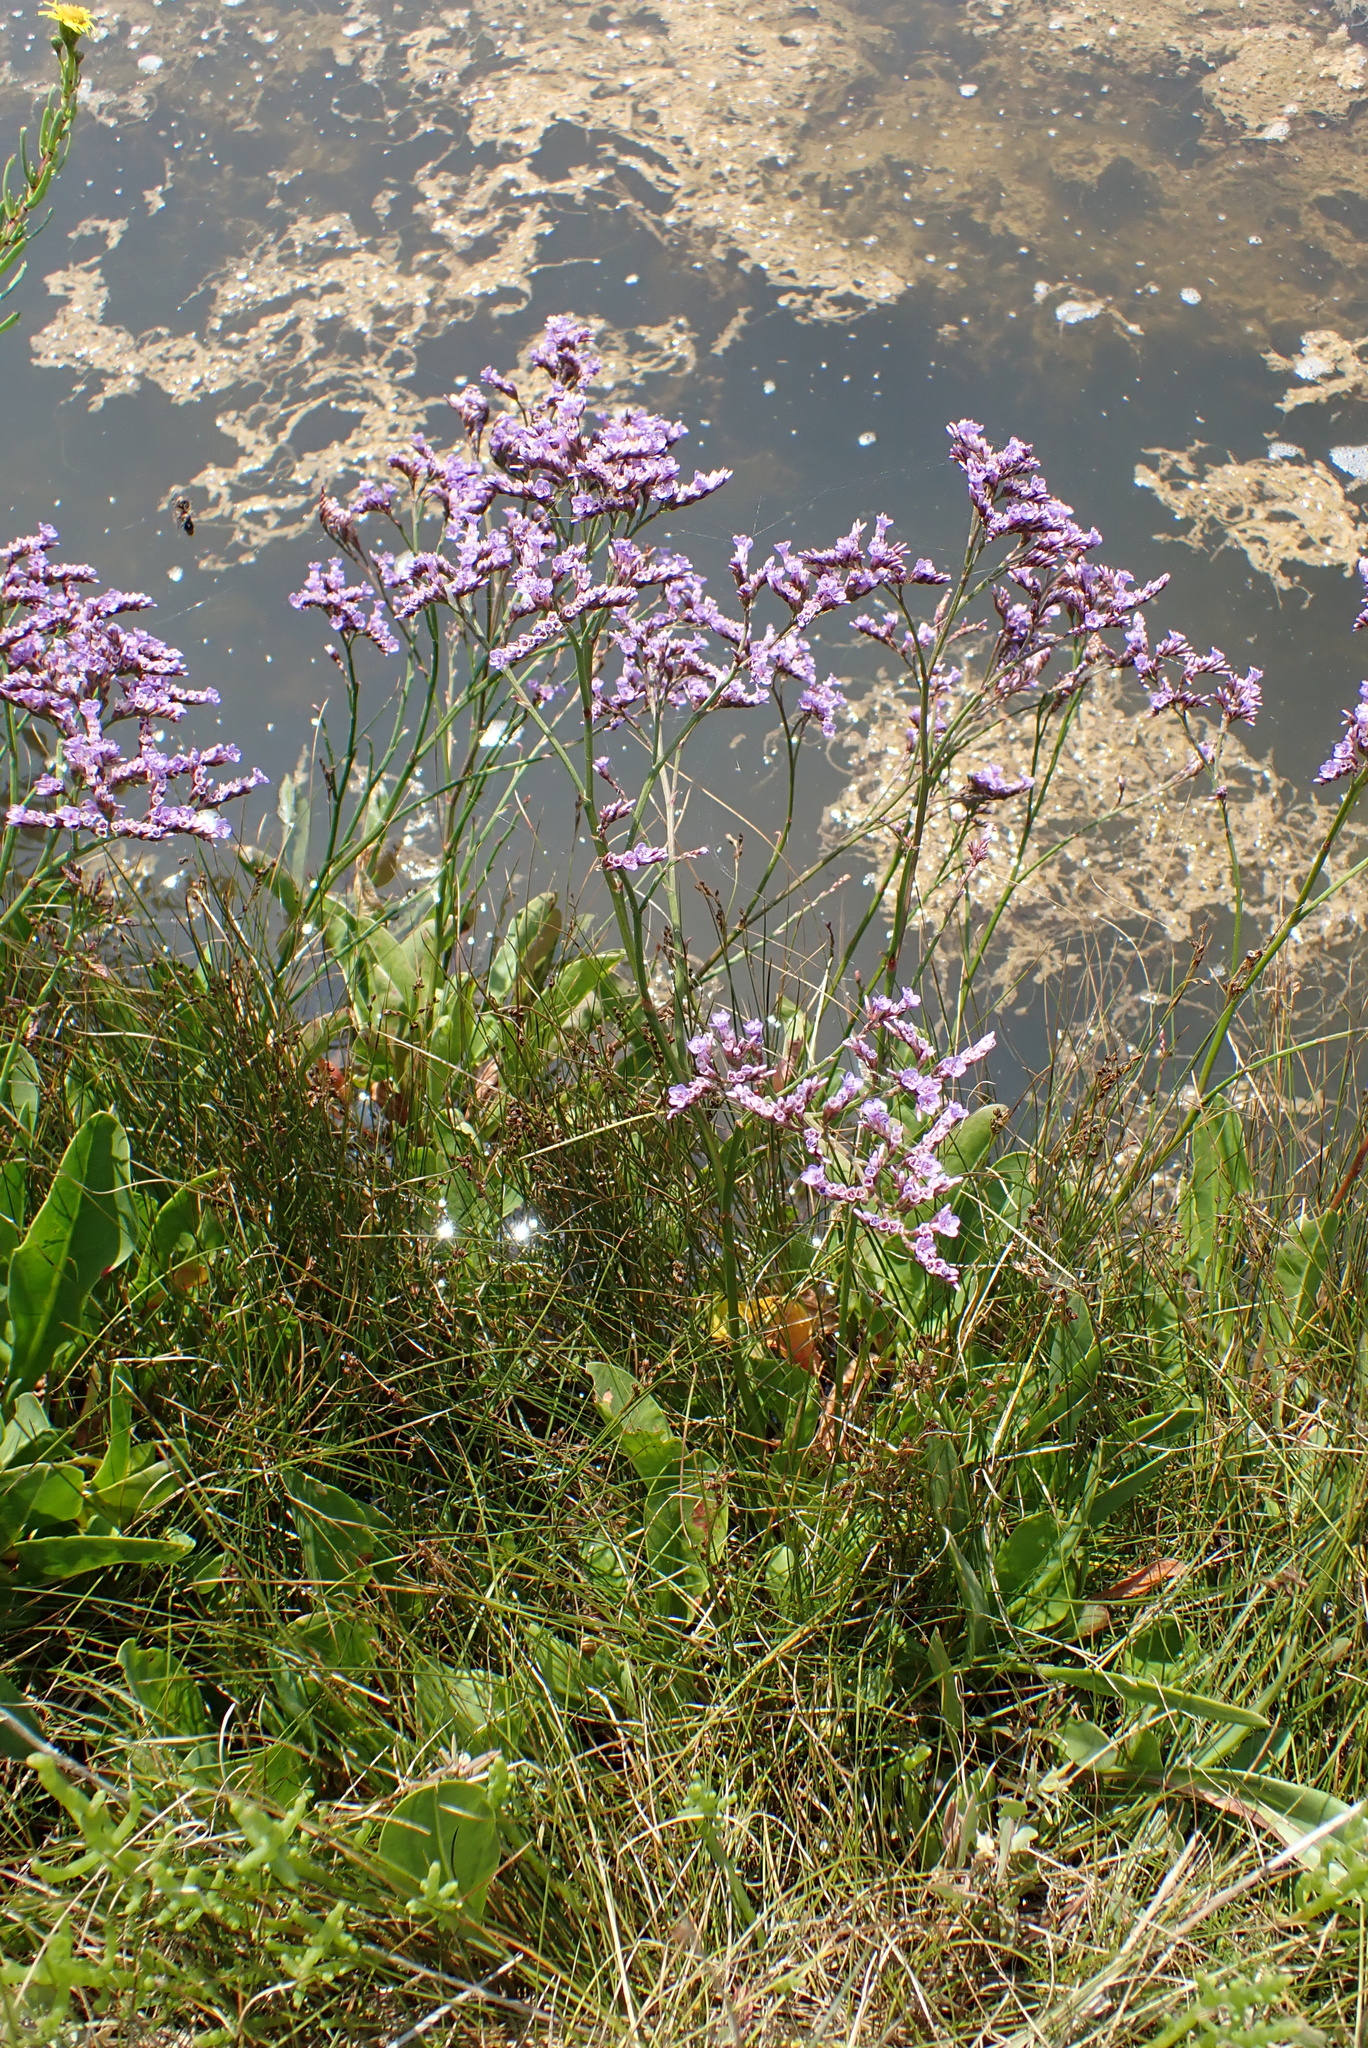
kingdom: Plantae
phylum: Tracheophyta
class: Magnoliopsida
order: Caryophyllales
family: Plumbaginaceae
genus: Limonium
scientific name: Limonium vulgare
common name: Common sea-lavender
